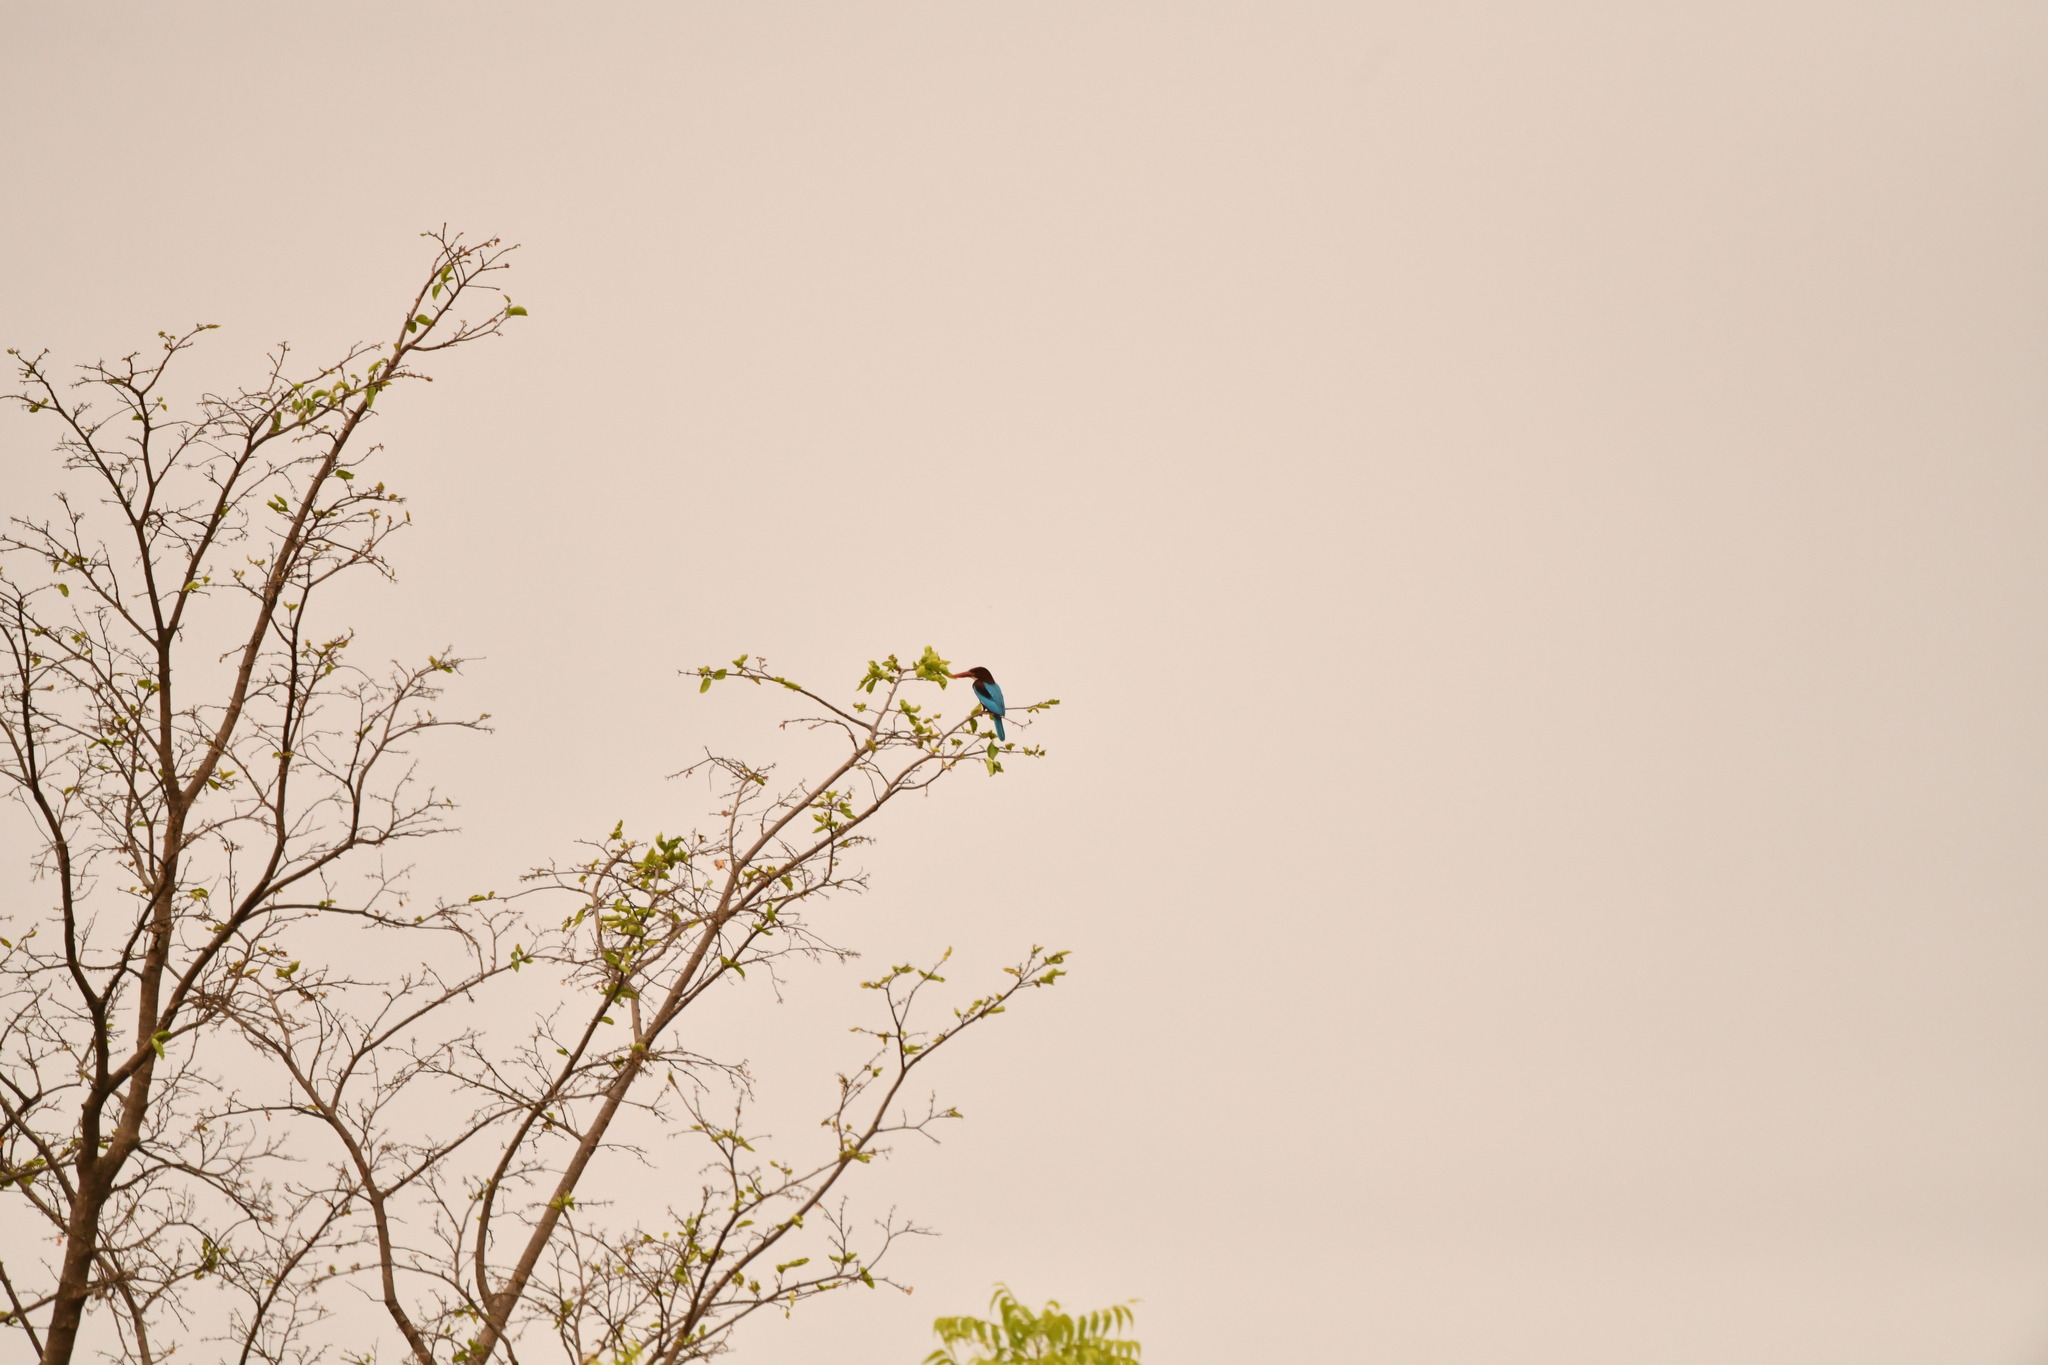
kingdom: Animalia
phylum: Chordata
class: Aves
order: Coraciiformes
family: Alcedinidae
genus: Halcyon
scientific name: Halcyon smyrnensis
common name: White-throated kingfisher
